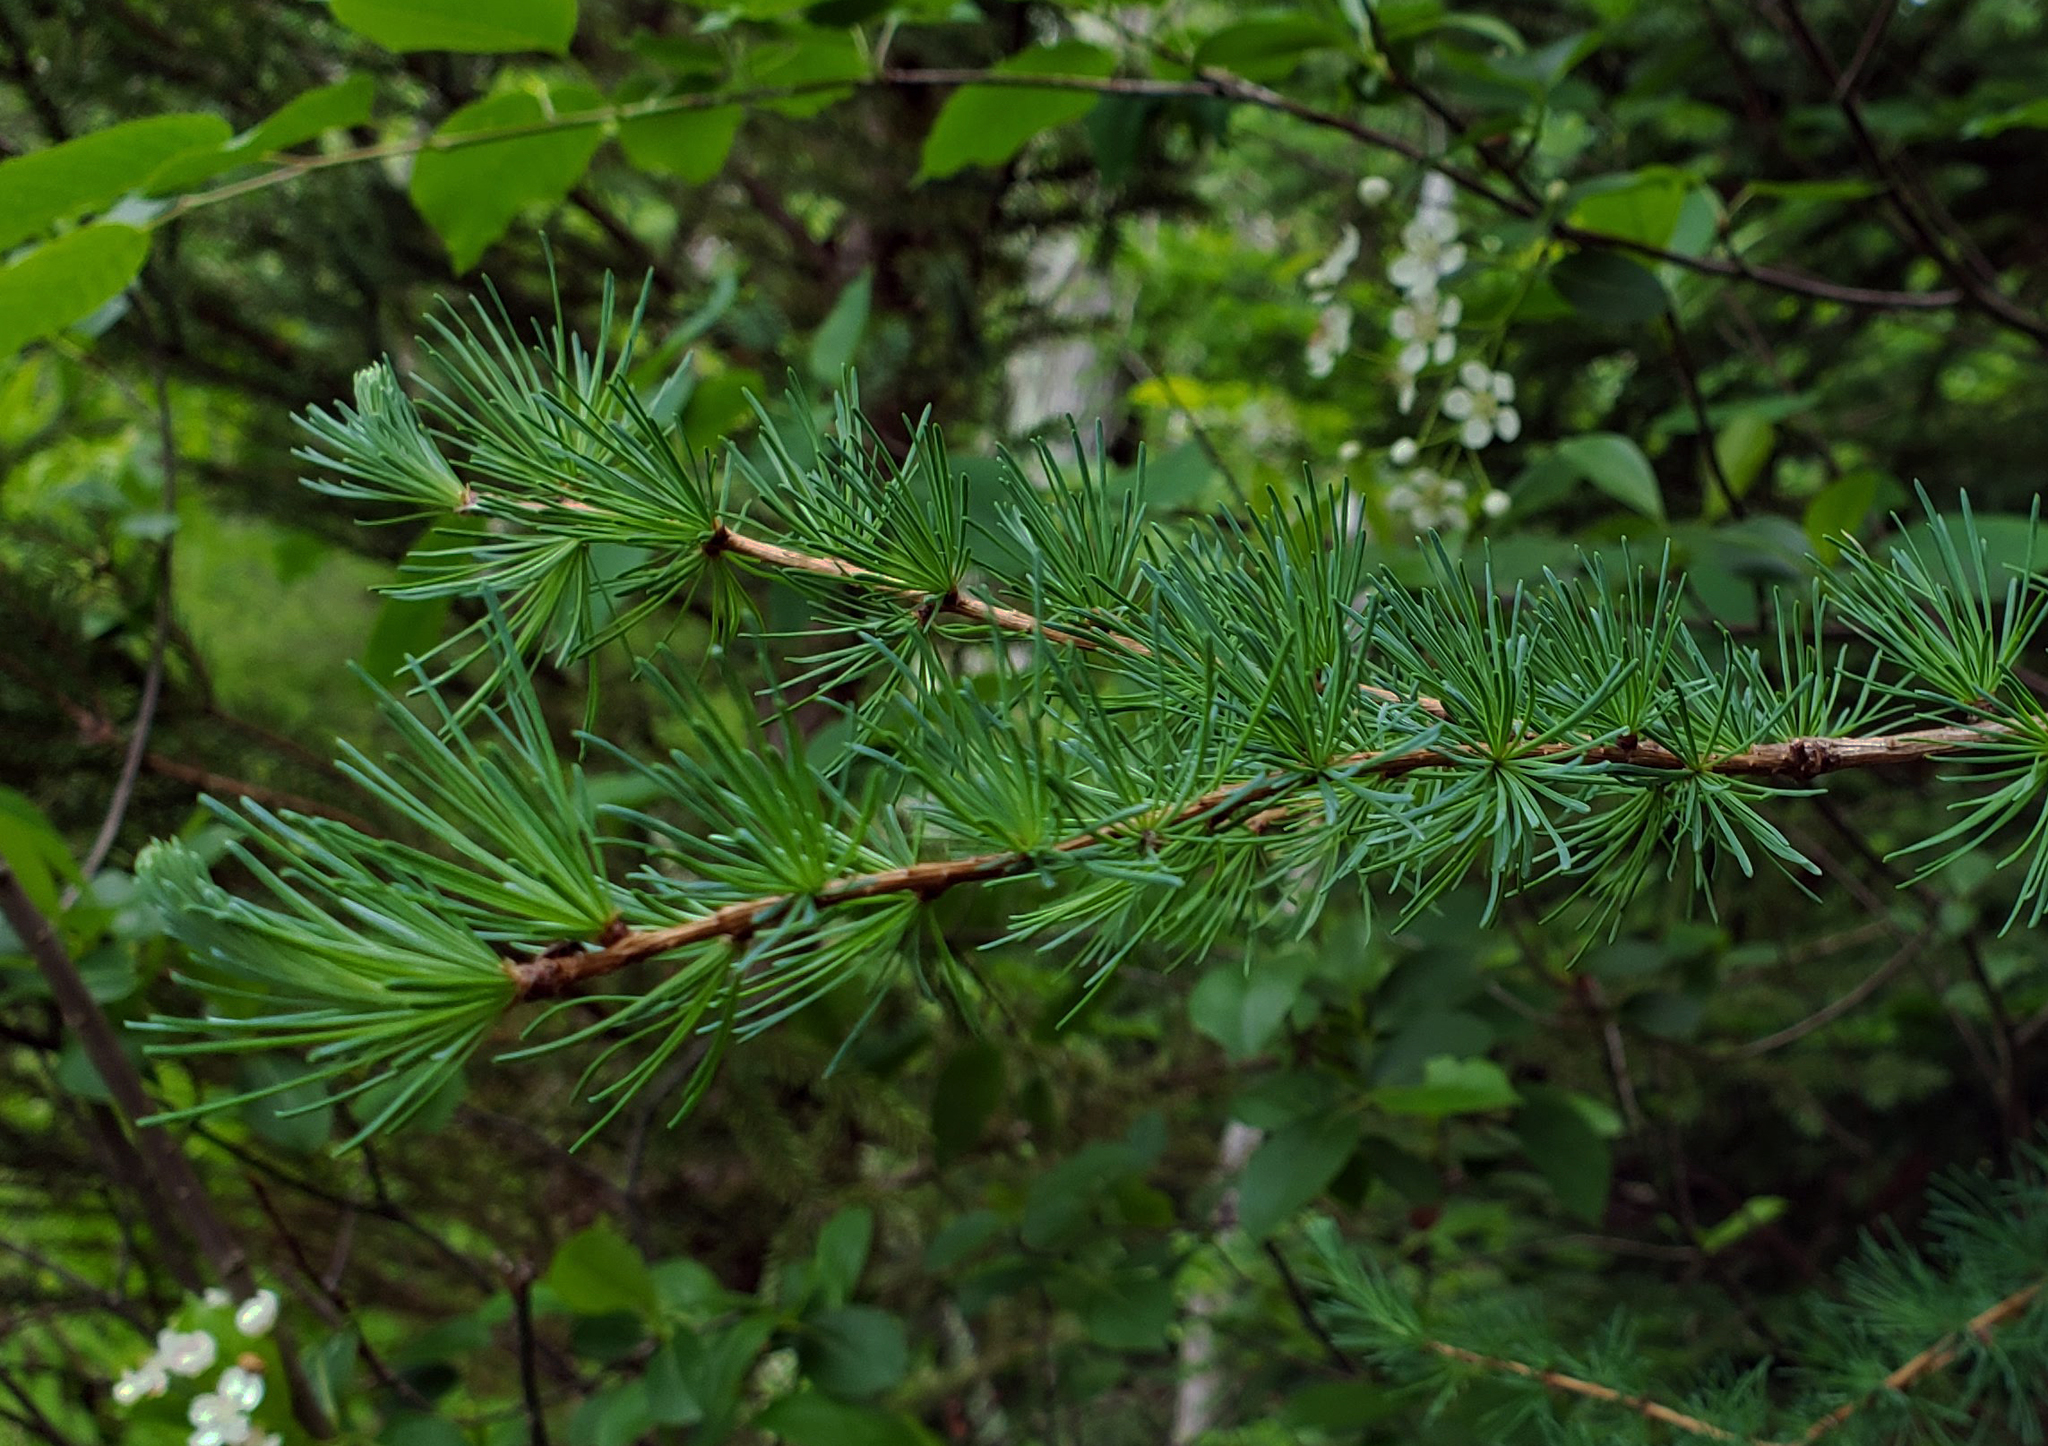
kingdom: Plantae
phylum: Tracheophyta
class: Pinopsida
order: Pinales
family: Pinaceae
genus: Larix
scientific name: Larix laricina
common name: American larch
